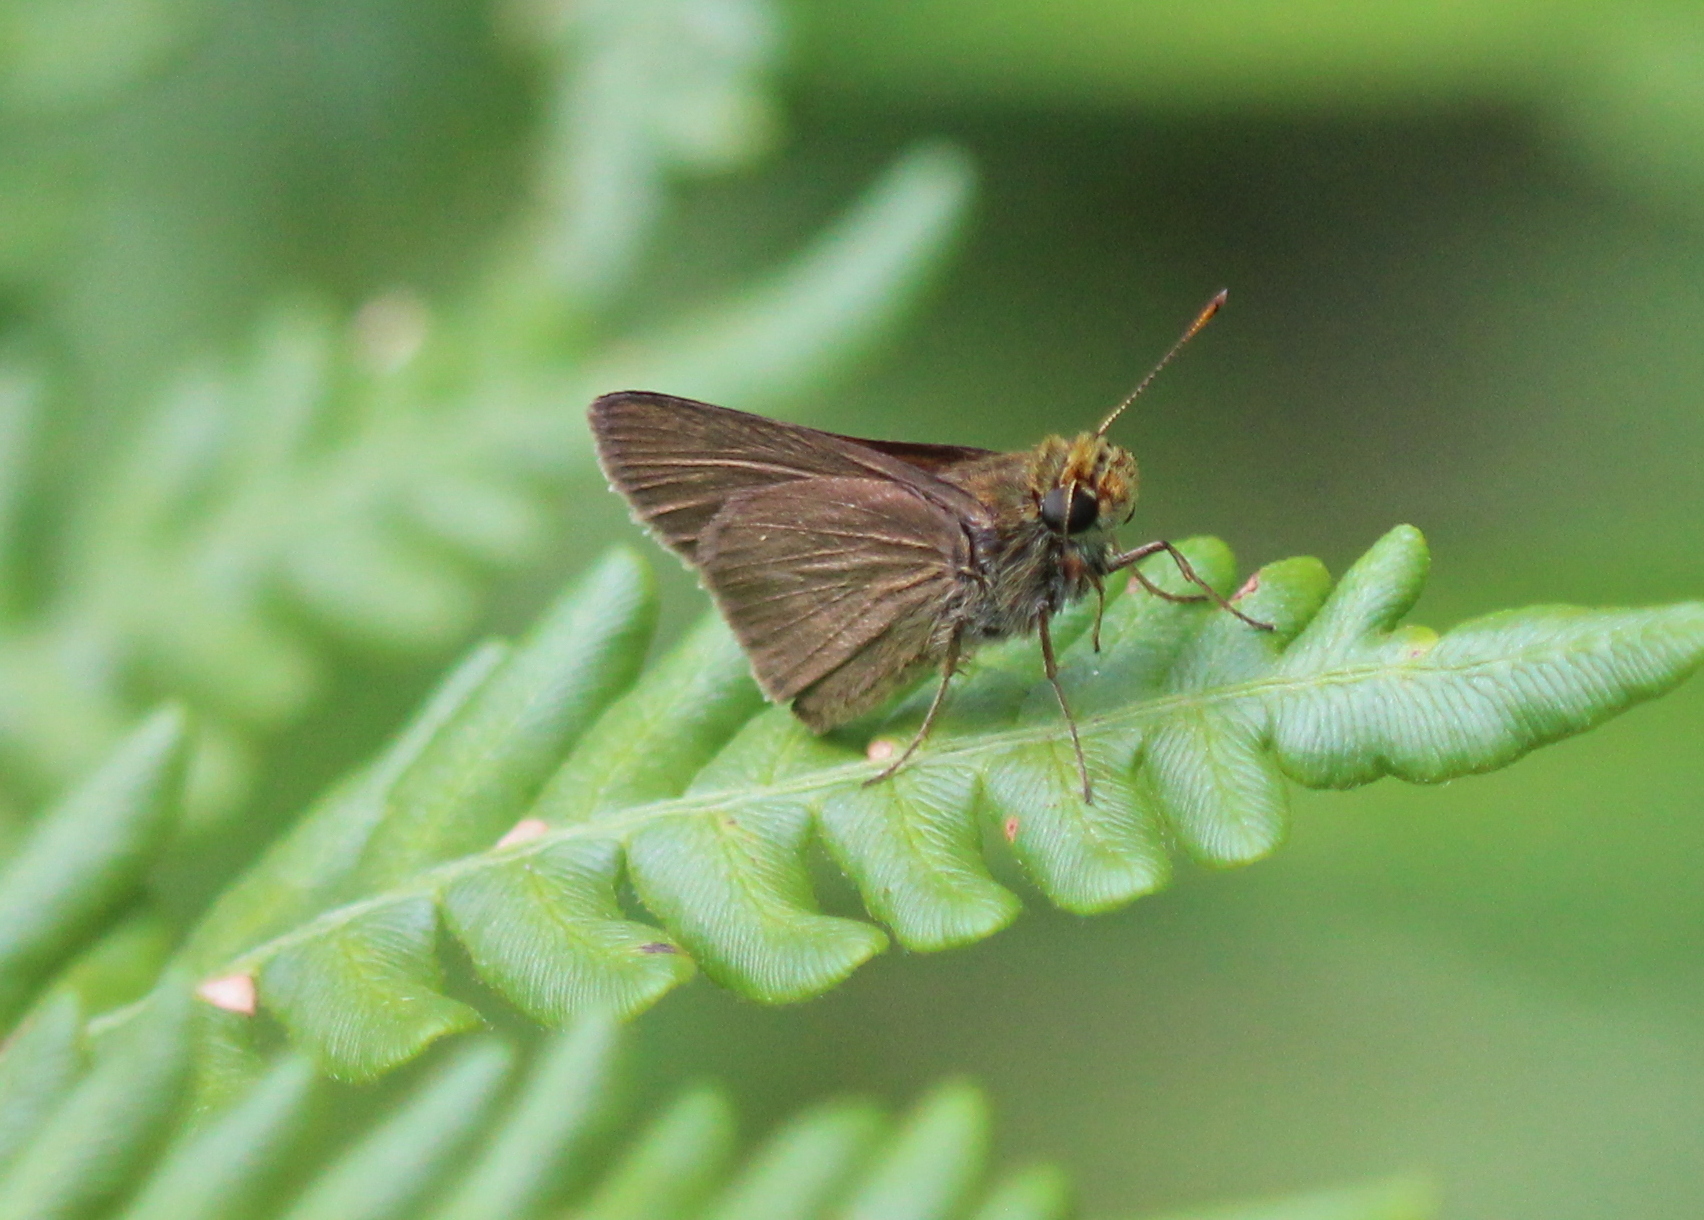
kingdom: Animalia
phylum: Arthropoda
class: Insecta
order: Lepidoptera
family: Hesperiidae
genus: Euphyes
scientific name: Euphyes vestris
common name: Dun skipper
